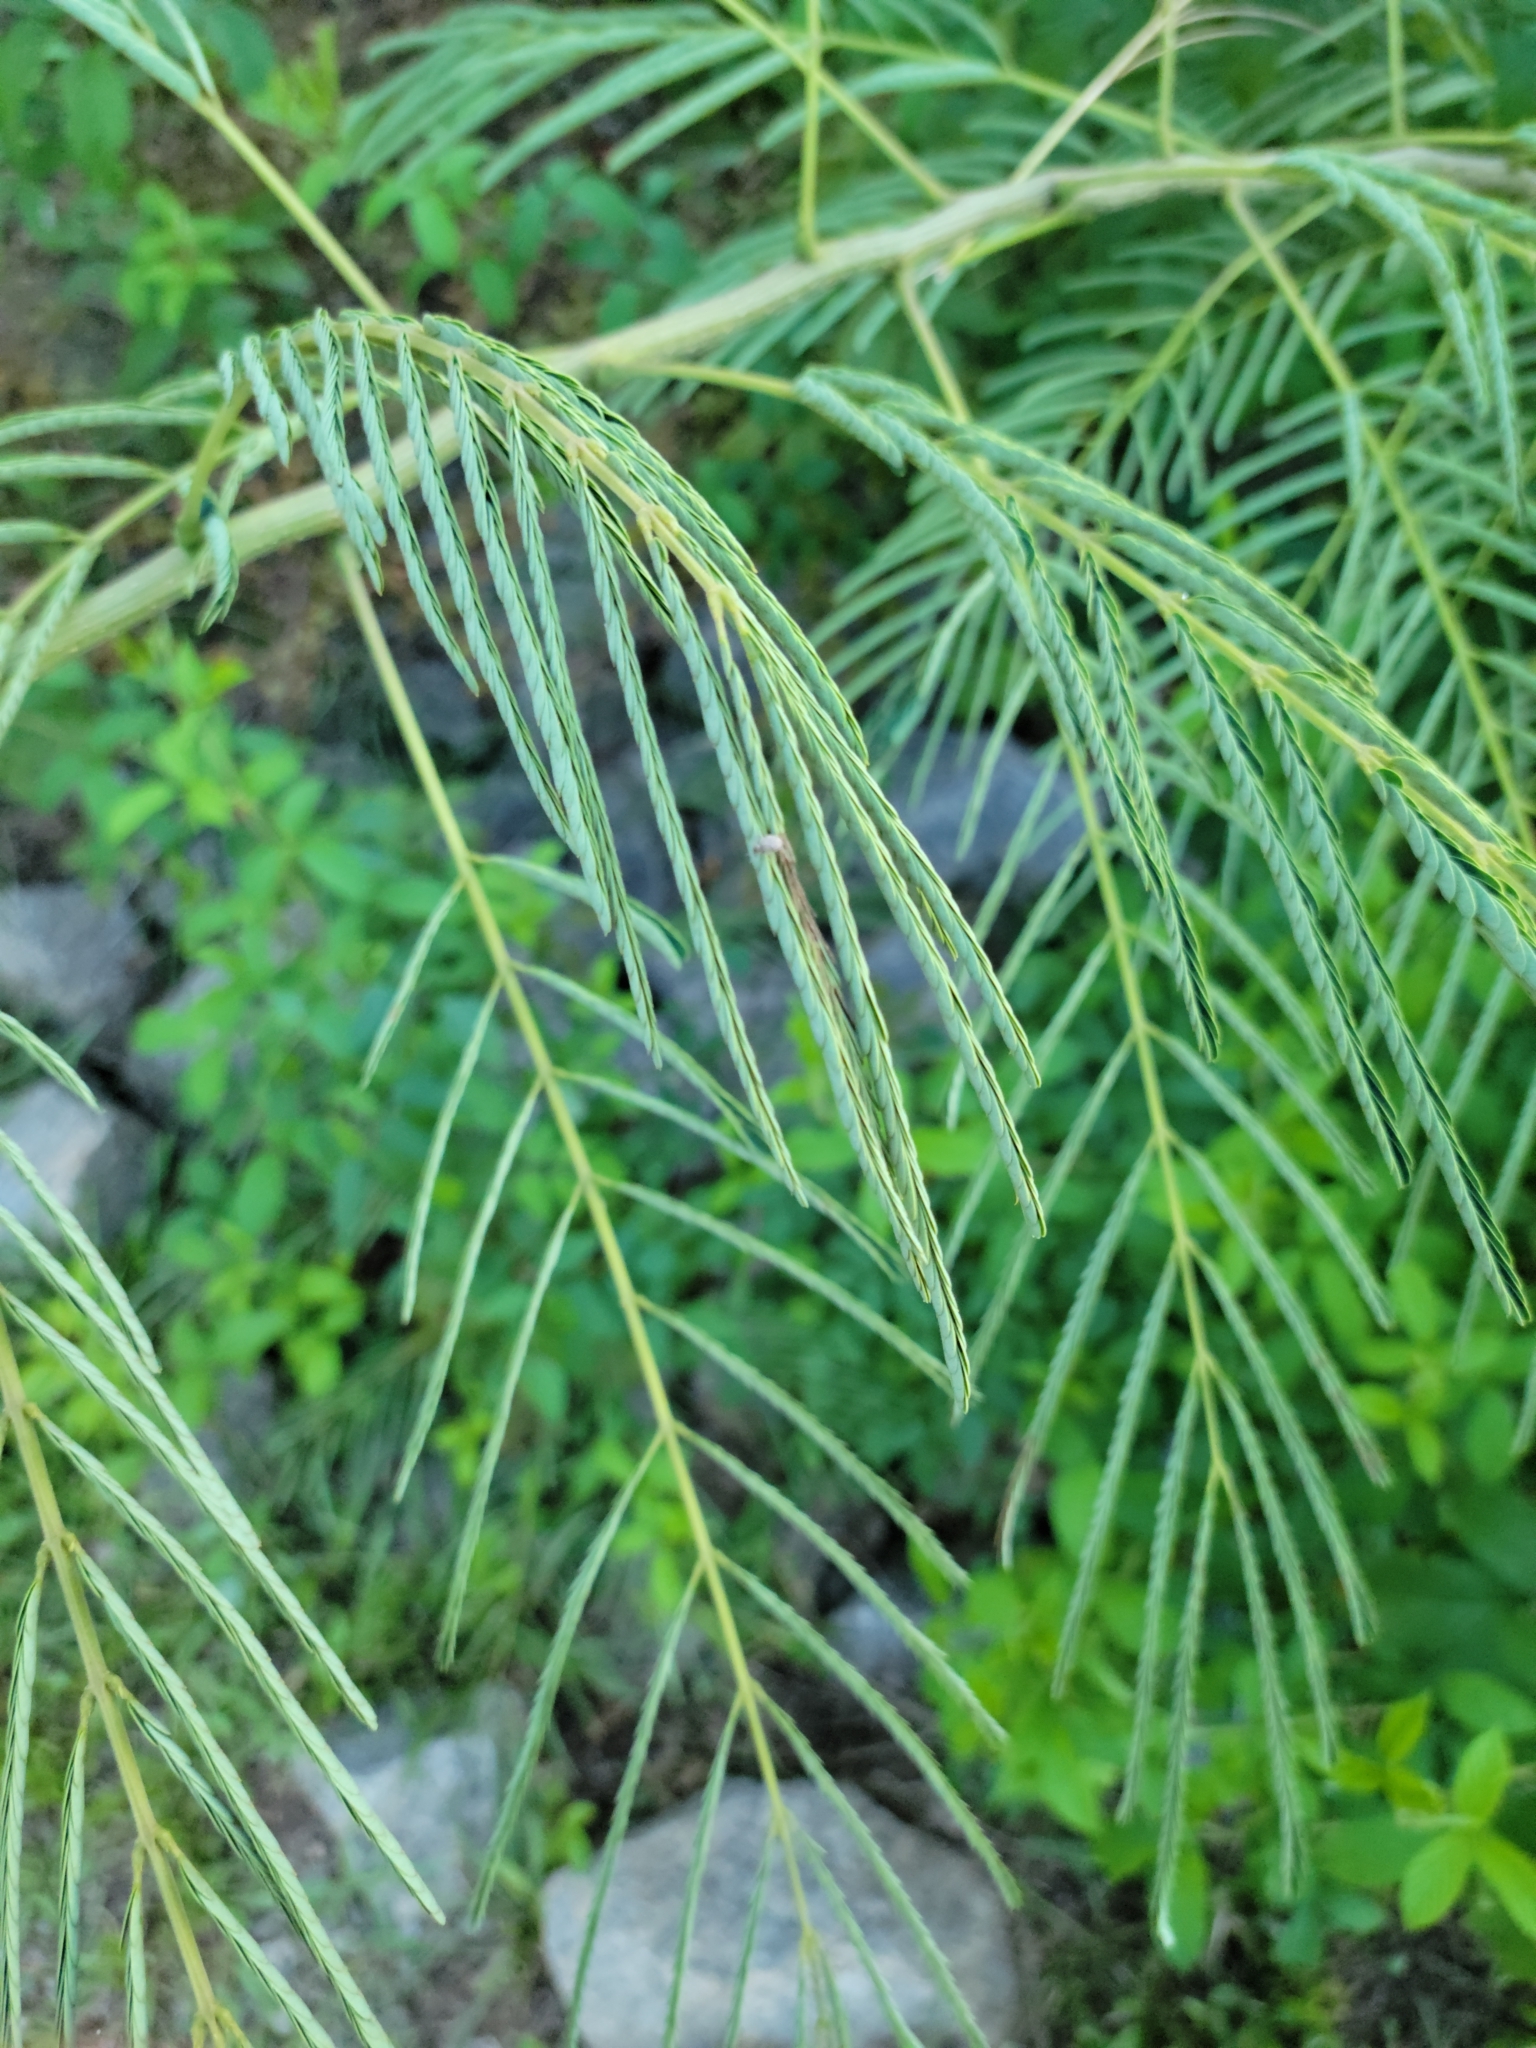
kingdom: Plantae
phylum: Tracheophyta
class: Magnoliopsida
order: Fabales
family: Fabaceae
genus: Albizia
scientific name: Albizia julibrissin
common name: Silktree
